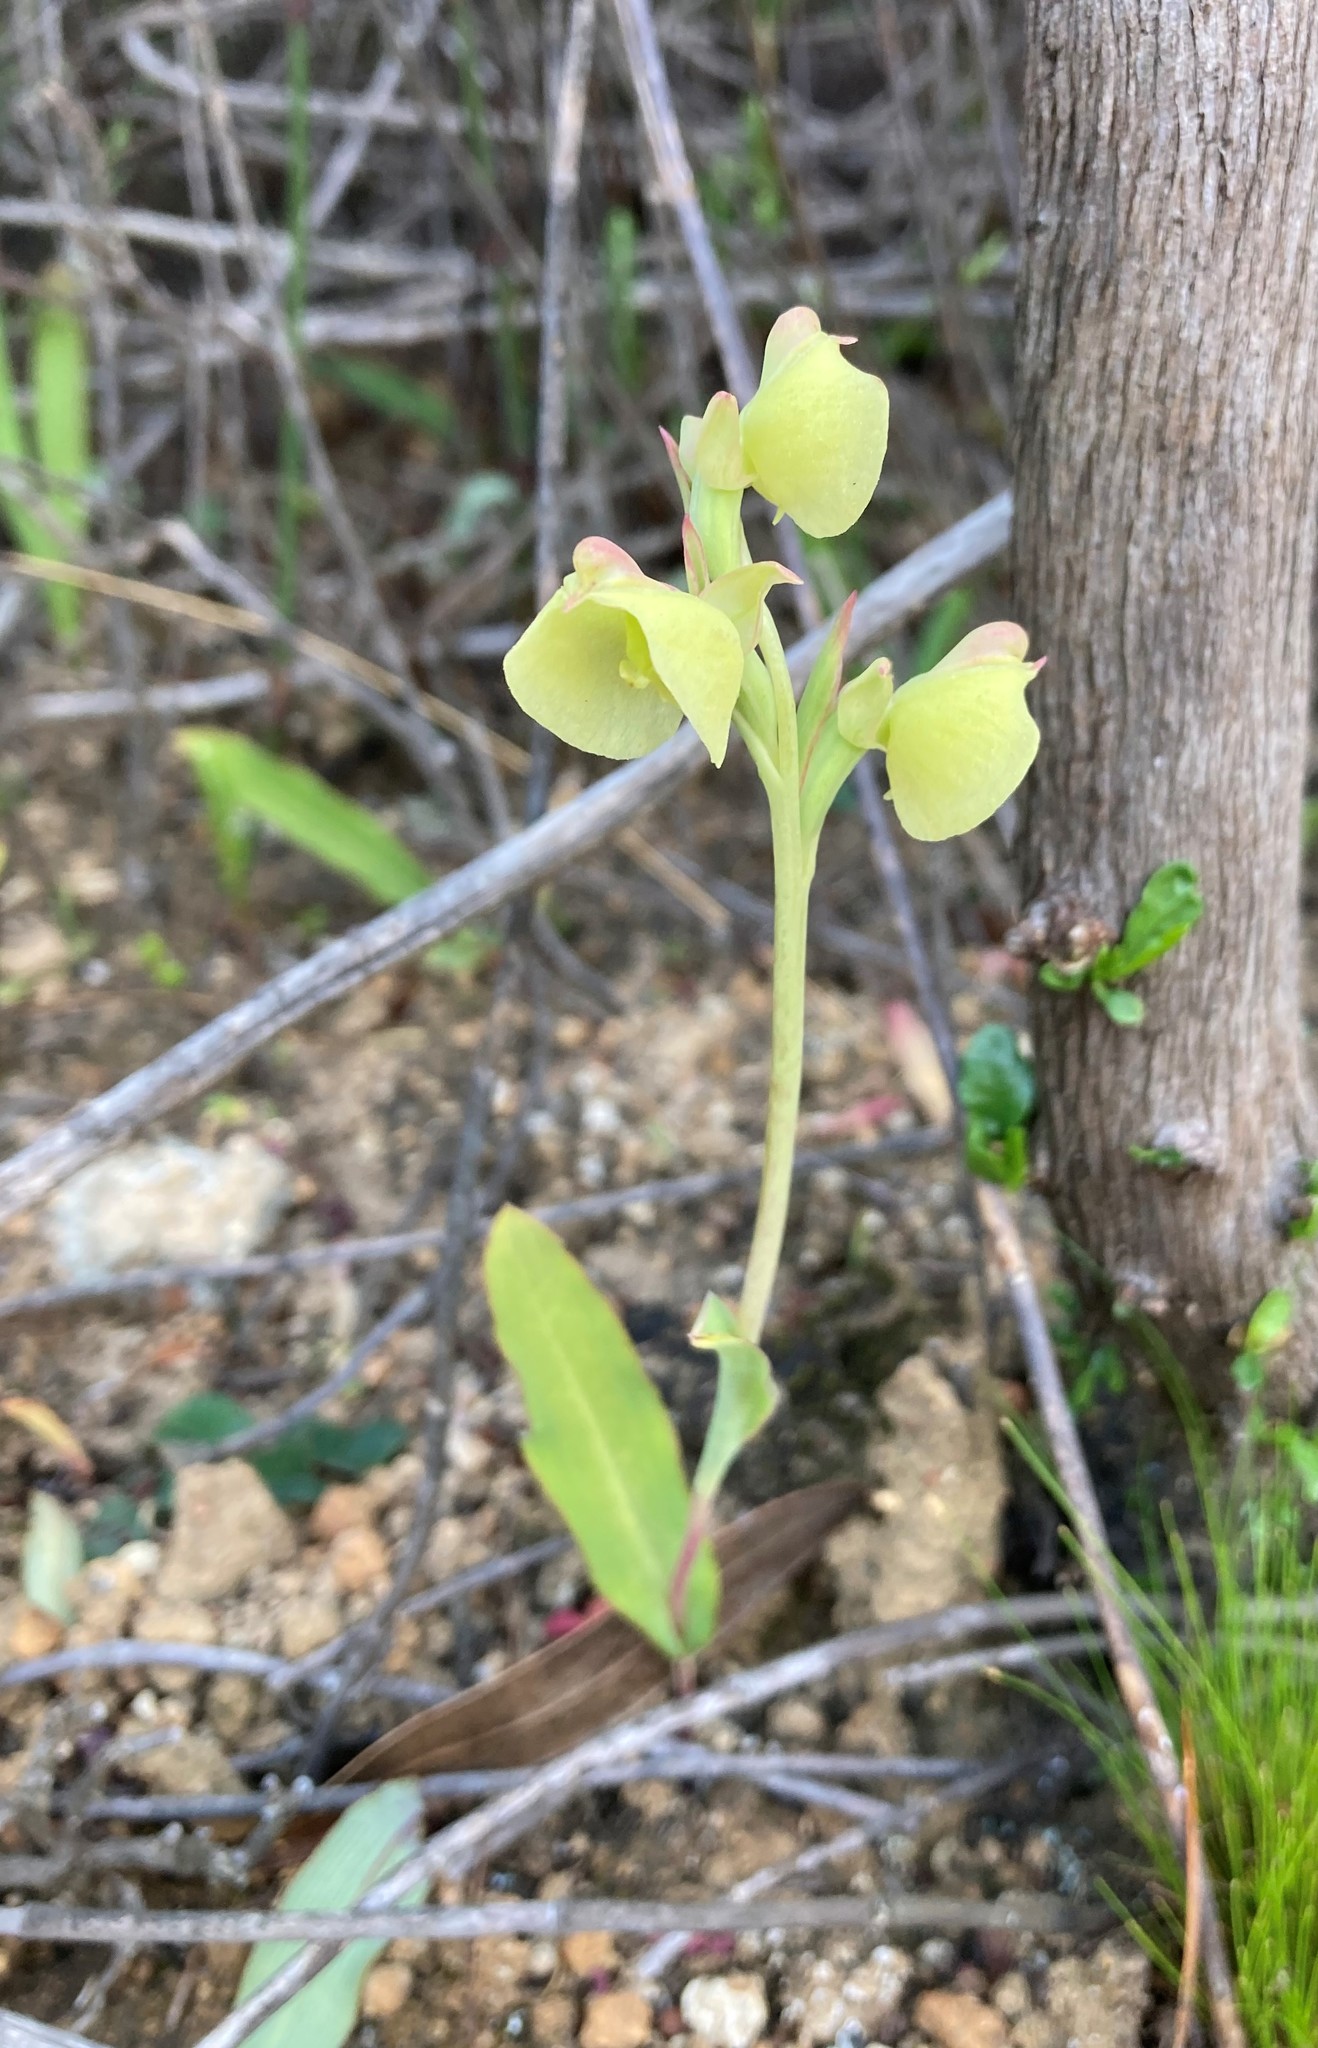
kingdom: Plantae
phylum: Tracheophyta
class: Liliopsida
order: Asparagales
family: Orchidaceae
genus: Pterygodium
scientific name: Pterygodium catholicum
